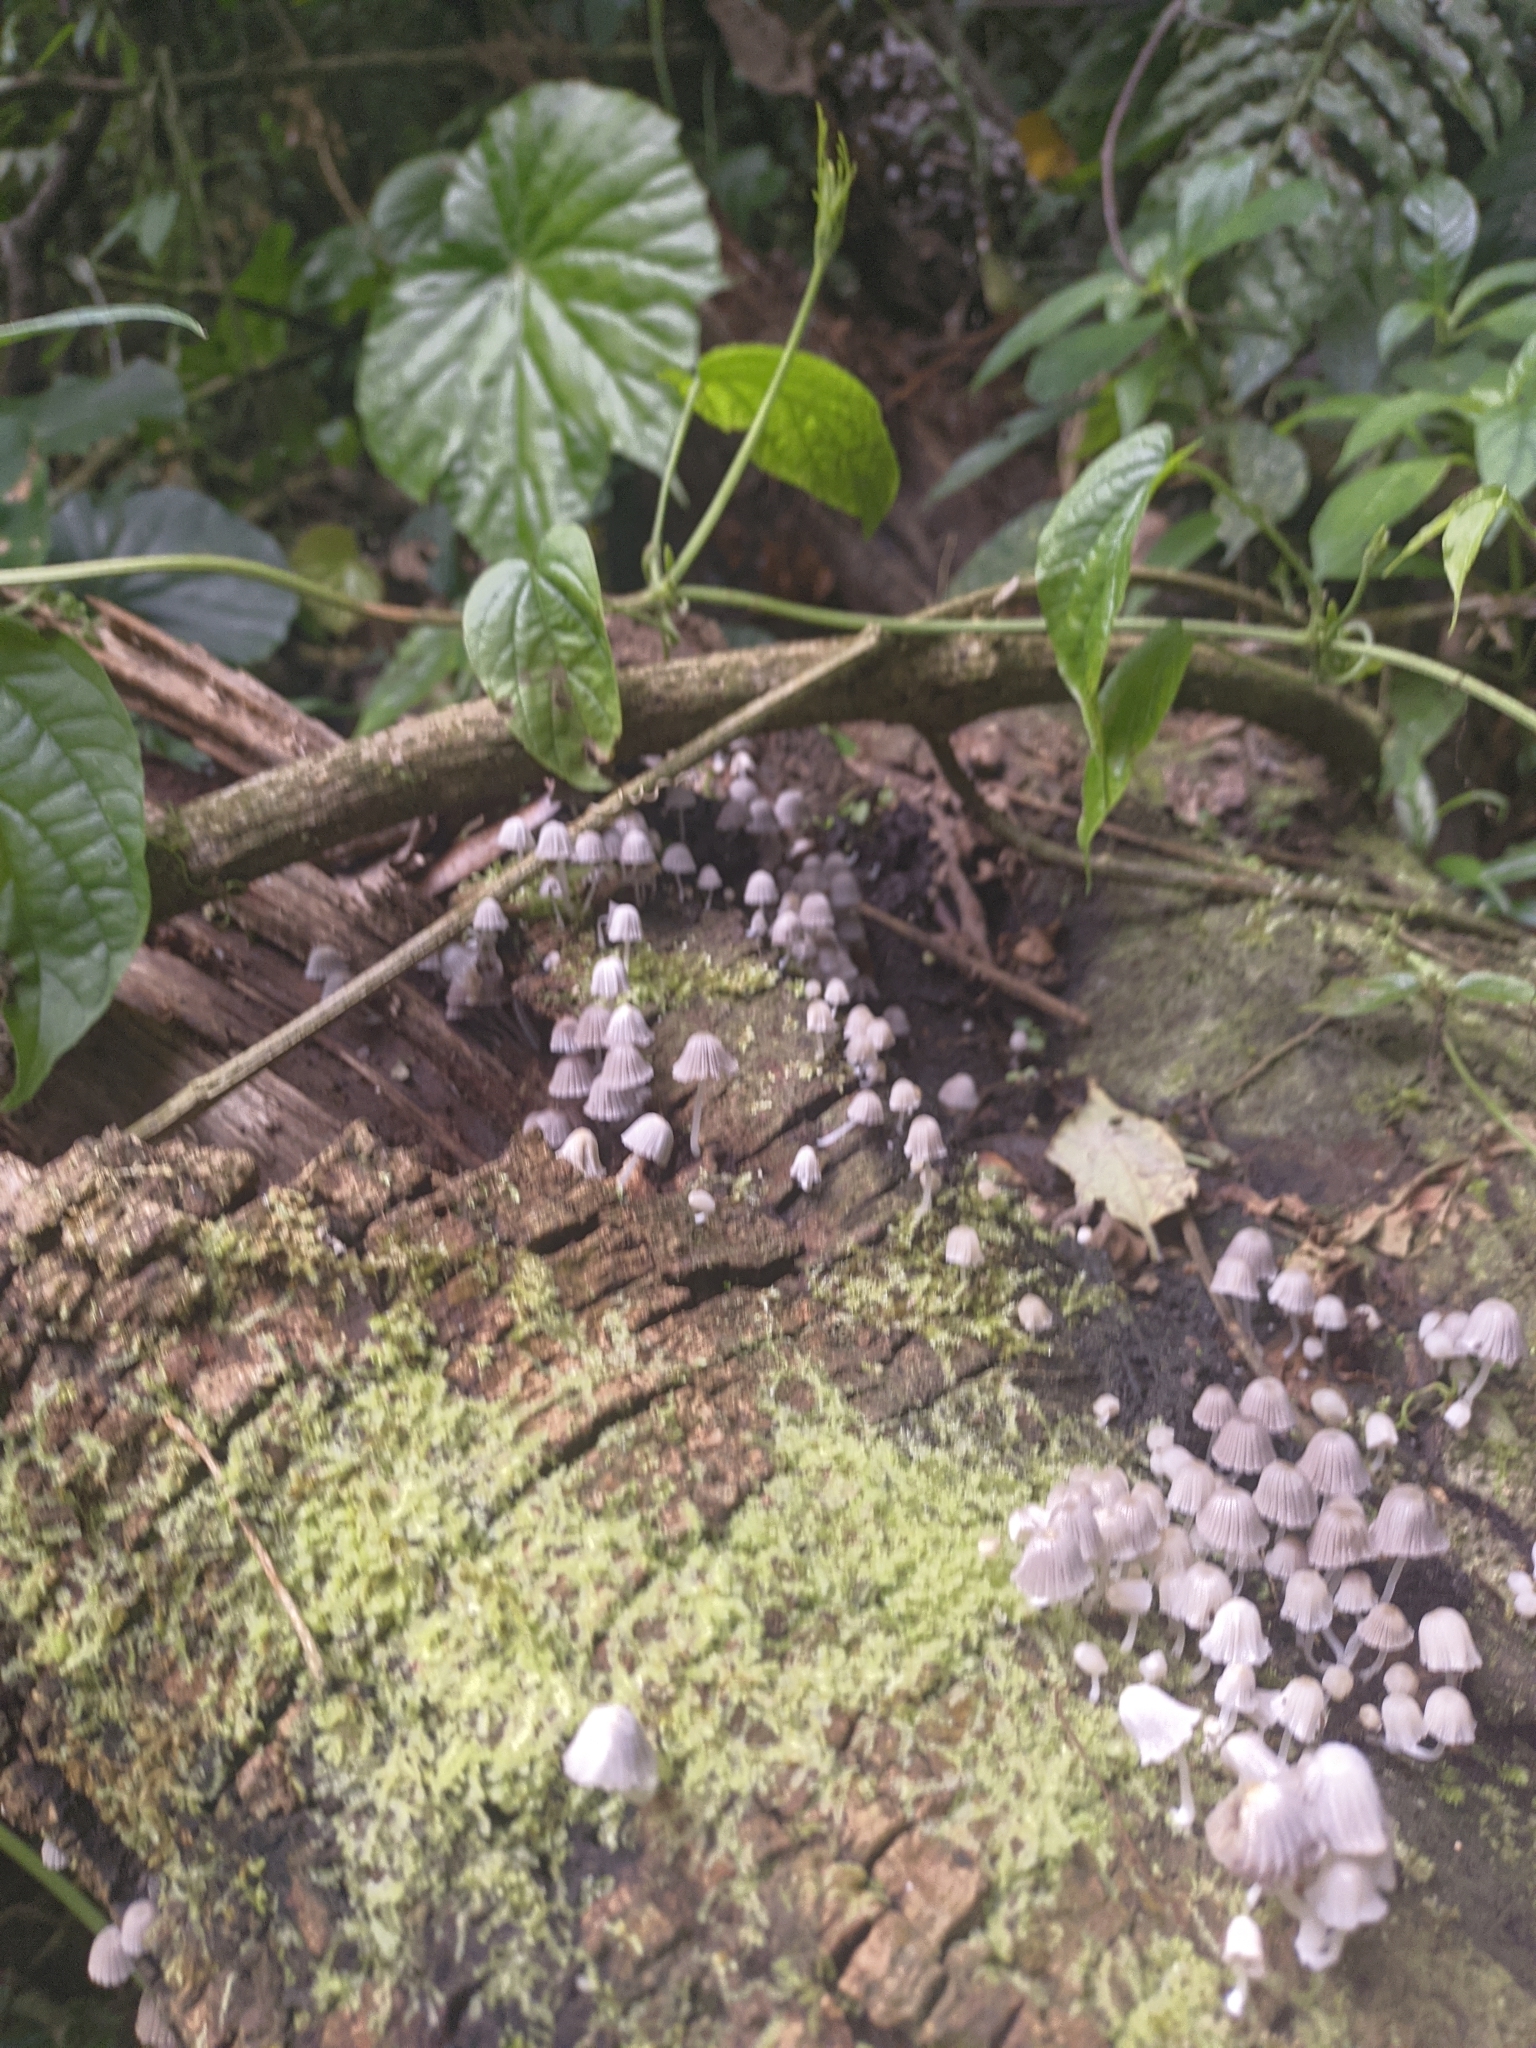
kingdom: Fungi
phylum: Basidiomycota
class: Agaricomycetes
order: Agaricales
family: Psathyrellaceae
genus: Coprinellus
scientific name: Coprinellus disseminatus
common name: Fairies' bonnets
